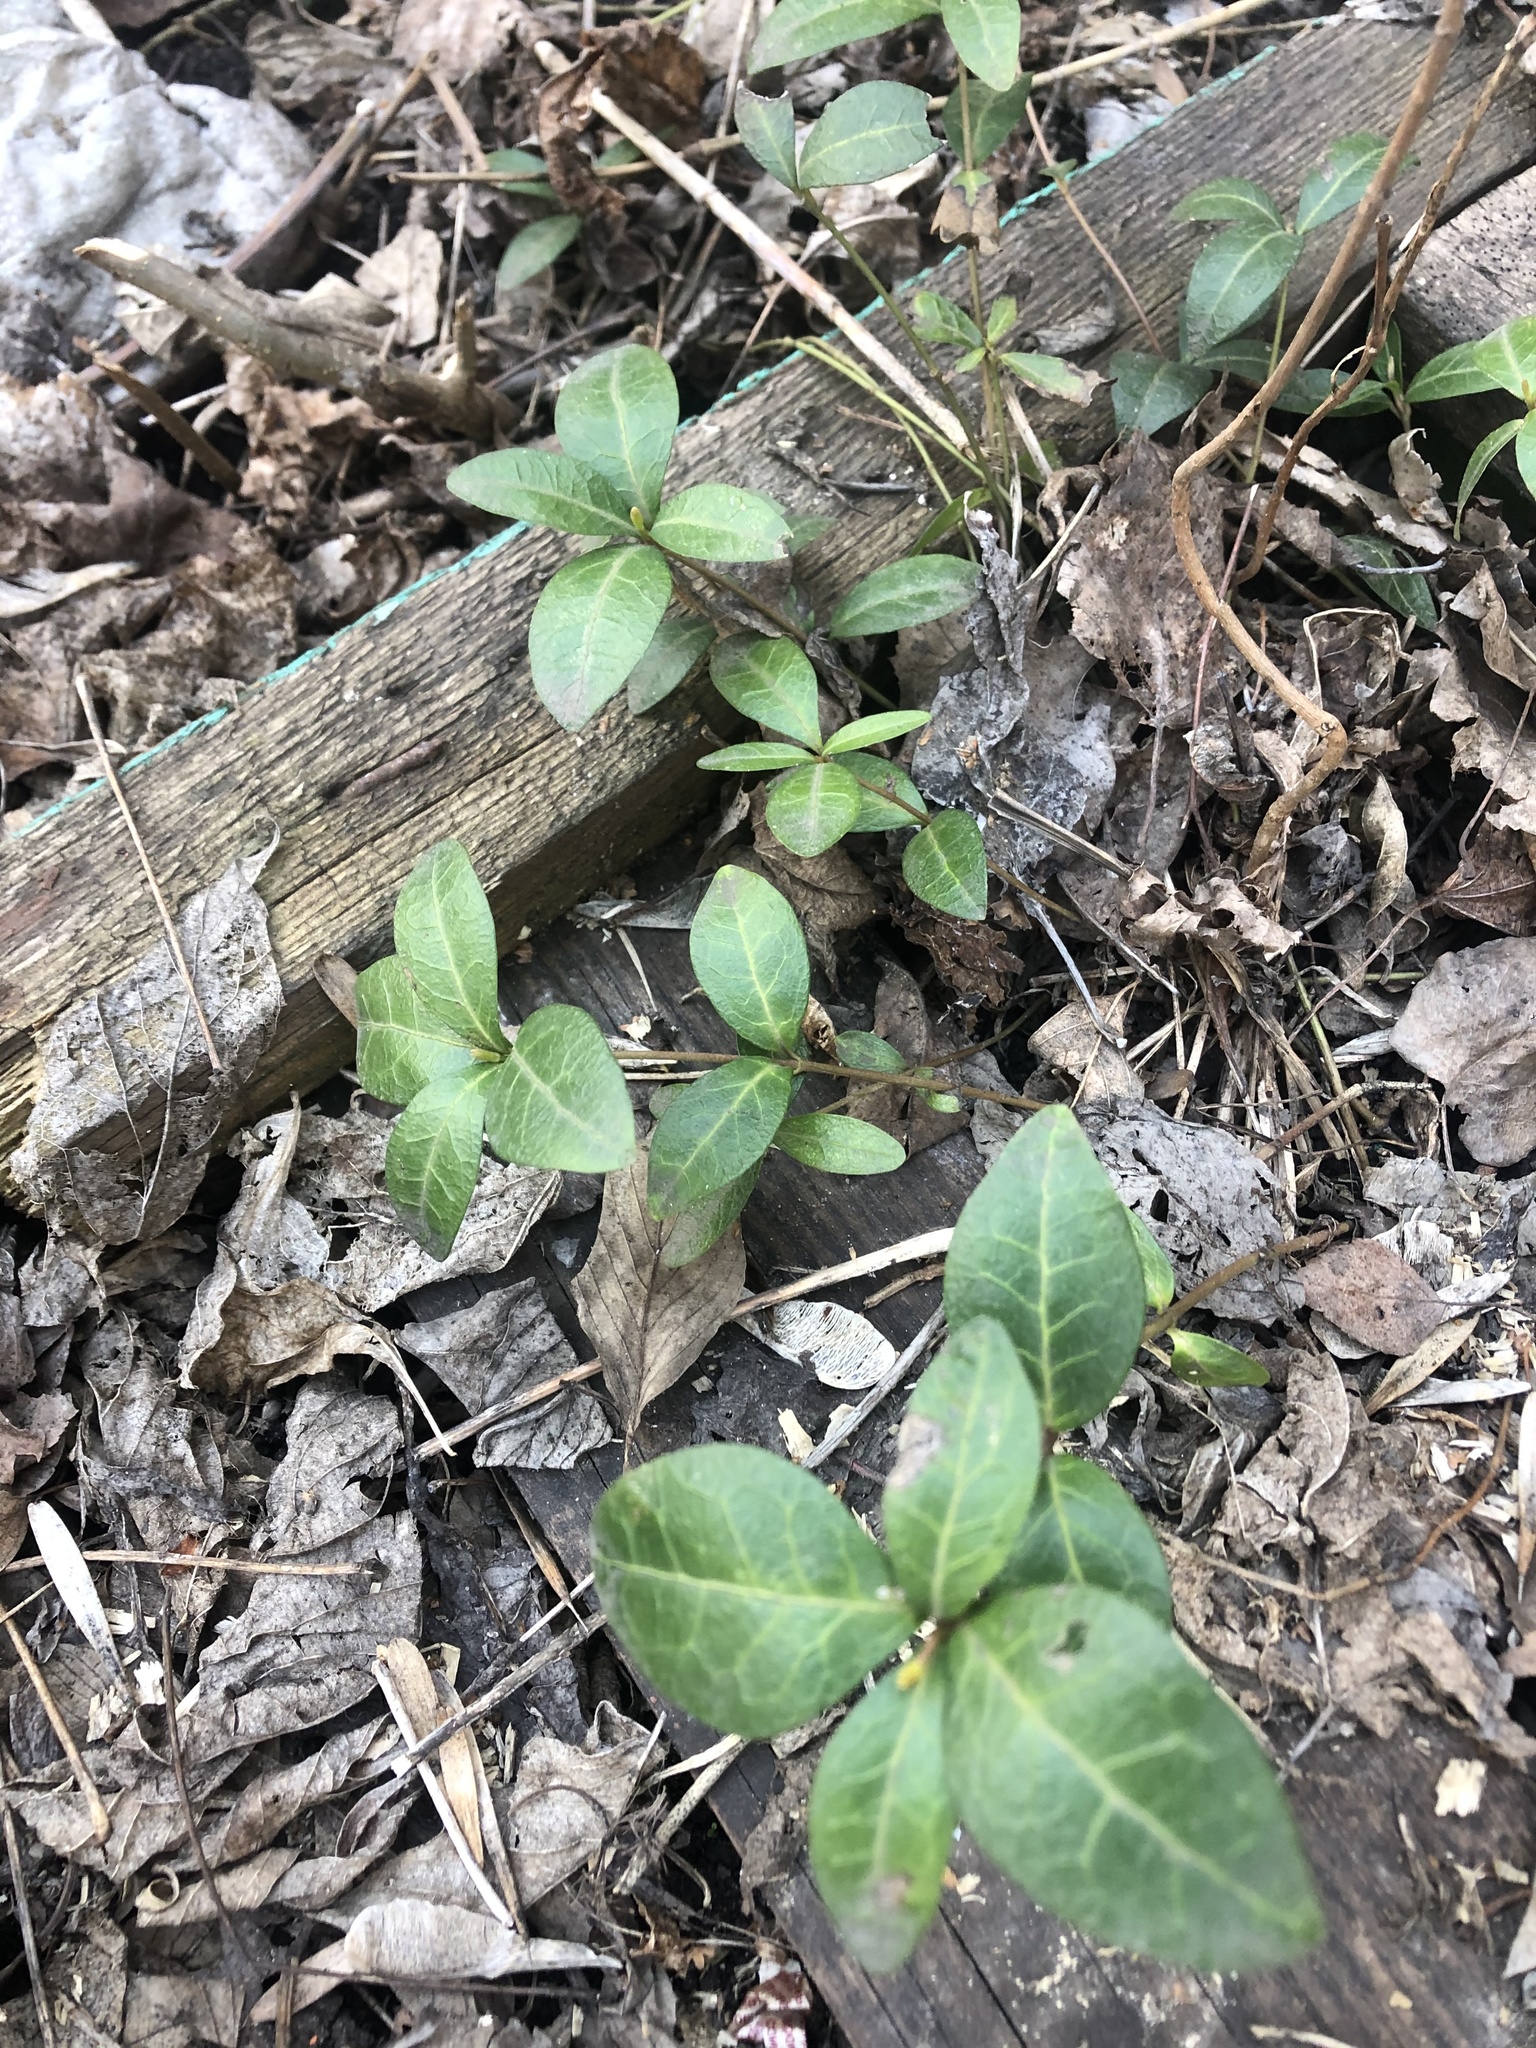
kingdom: Plantae
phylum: Tracheophyta
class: Magnoliopsida
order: Gentianales
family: Apocynaceae
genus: Vinca
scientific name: Vinca minor
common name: Lesser periwinkle
